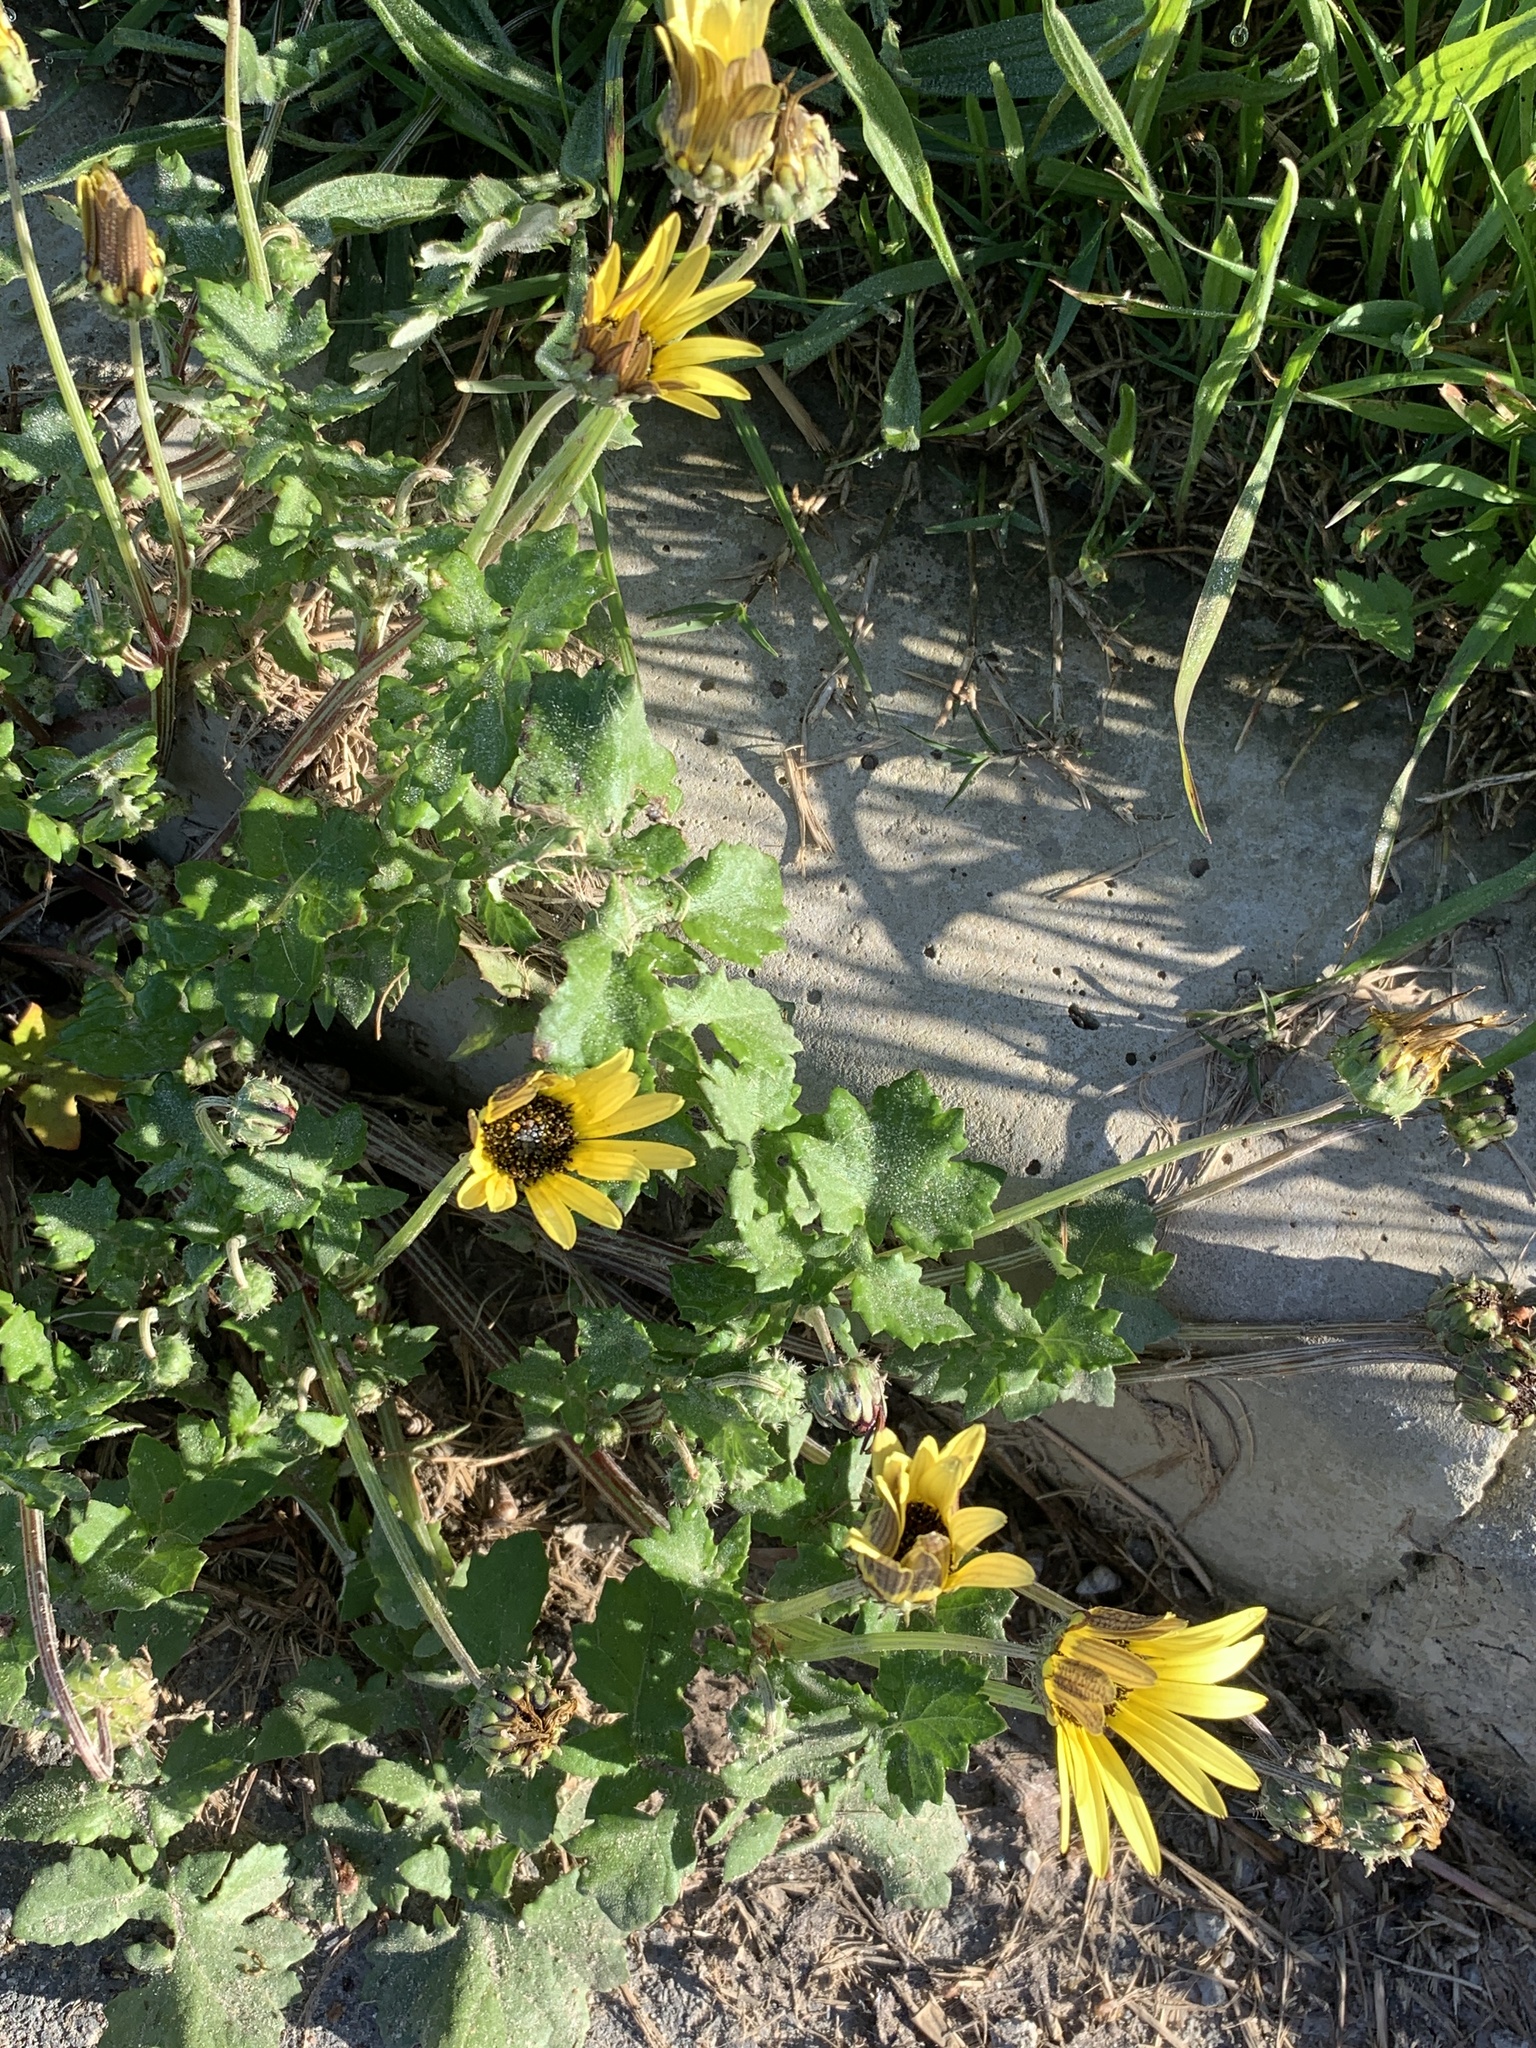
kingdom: Plantae
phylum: Tracheophyta
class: Magnoliopsida
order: Asterales
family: Asteraceae
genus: Arctotheca
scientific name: Arctotheca calendula
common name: Capeweed
